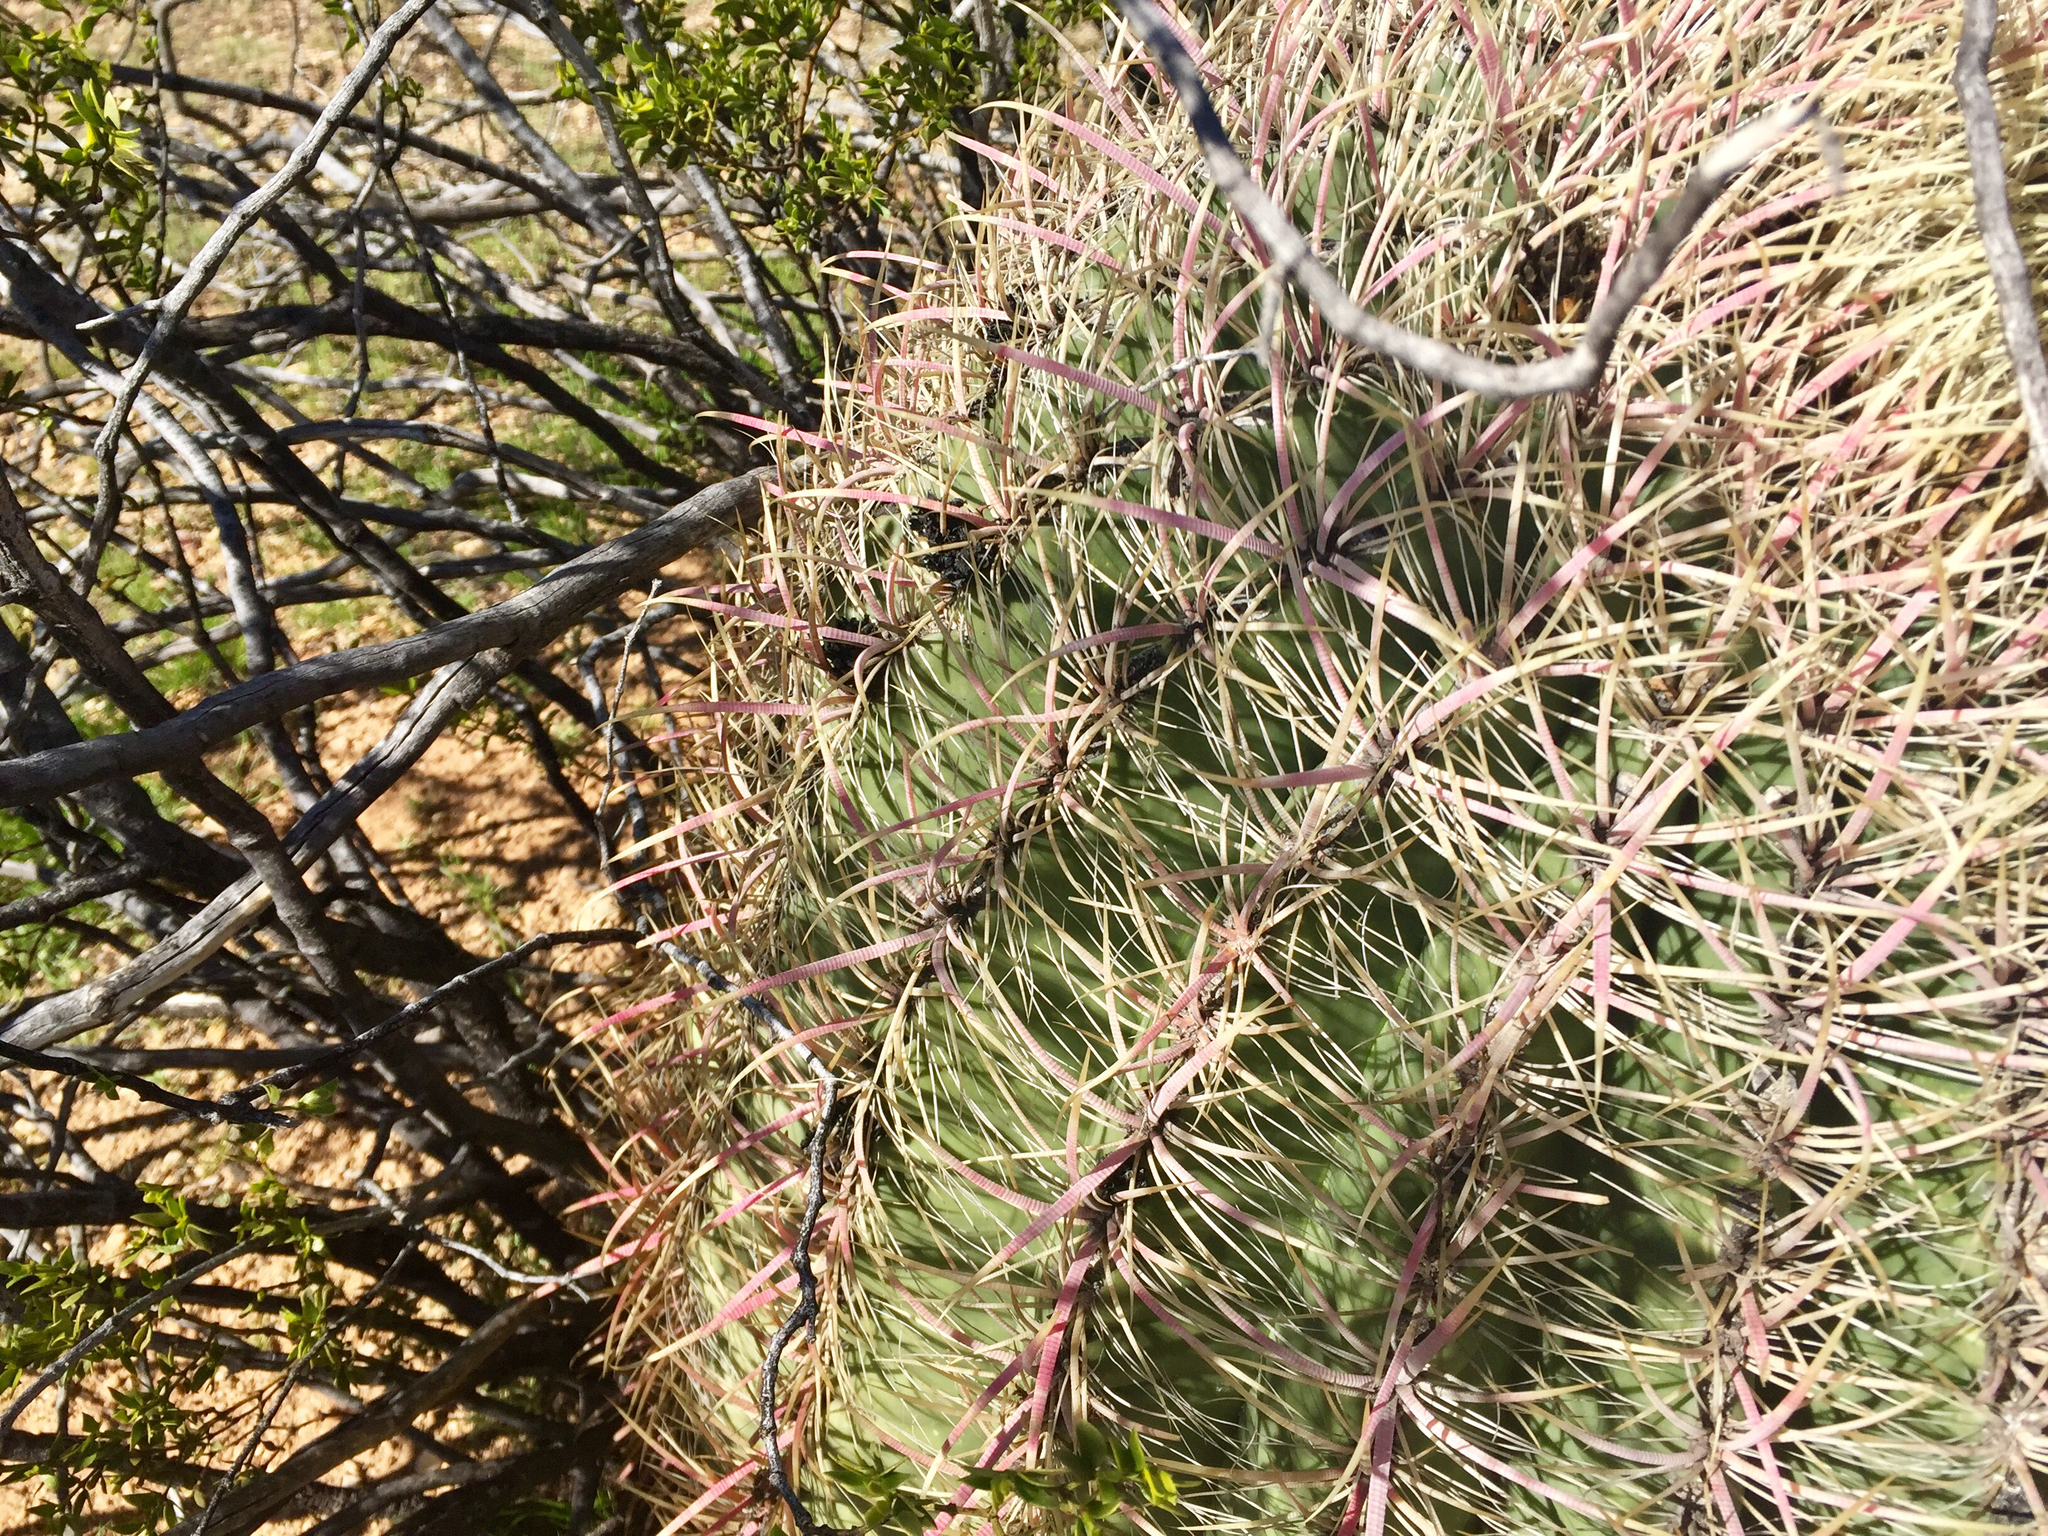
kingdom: Plantae
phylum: Tracheophyta
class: Magnoliopsida
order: Caryophyllales
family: Cactaceae
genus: Ferocactus
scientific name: Ferocactus cylindraceus
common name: California barrel cactus
